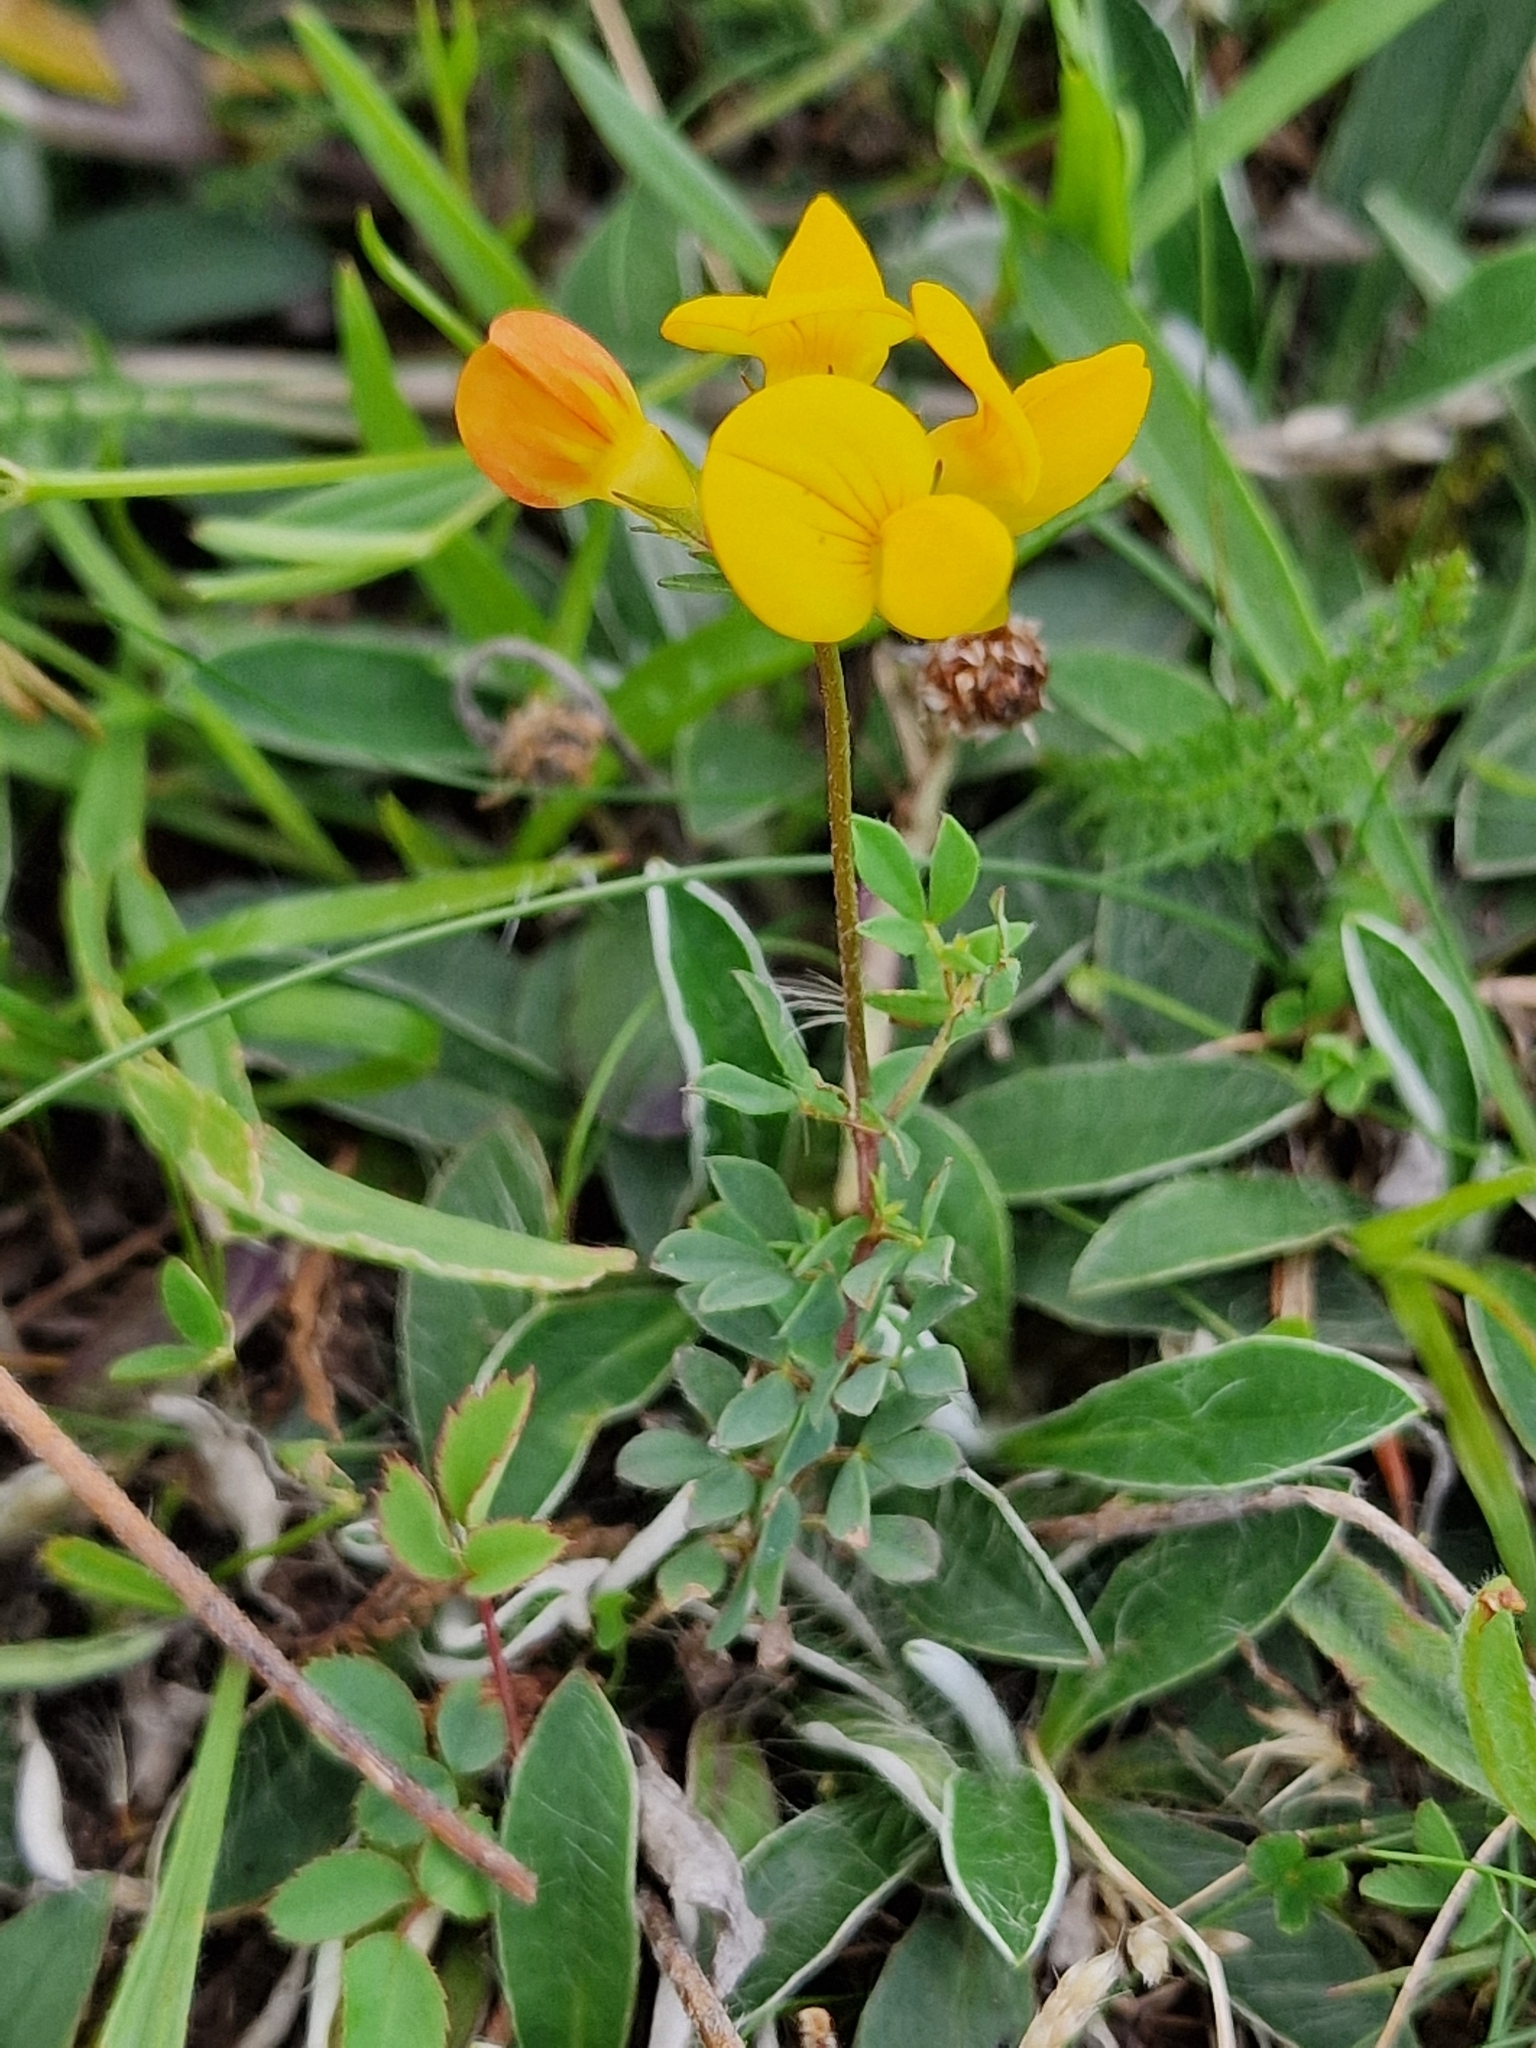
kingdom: Plantae
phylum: Tracheophyta
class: Magnoliopsida
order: Fabales
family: Fabaceae
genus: Lotus
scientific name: Lotus corniculatus
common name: Common bird's-foot-trefoil
